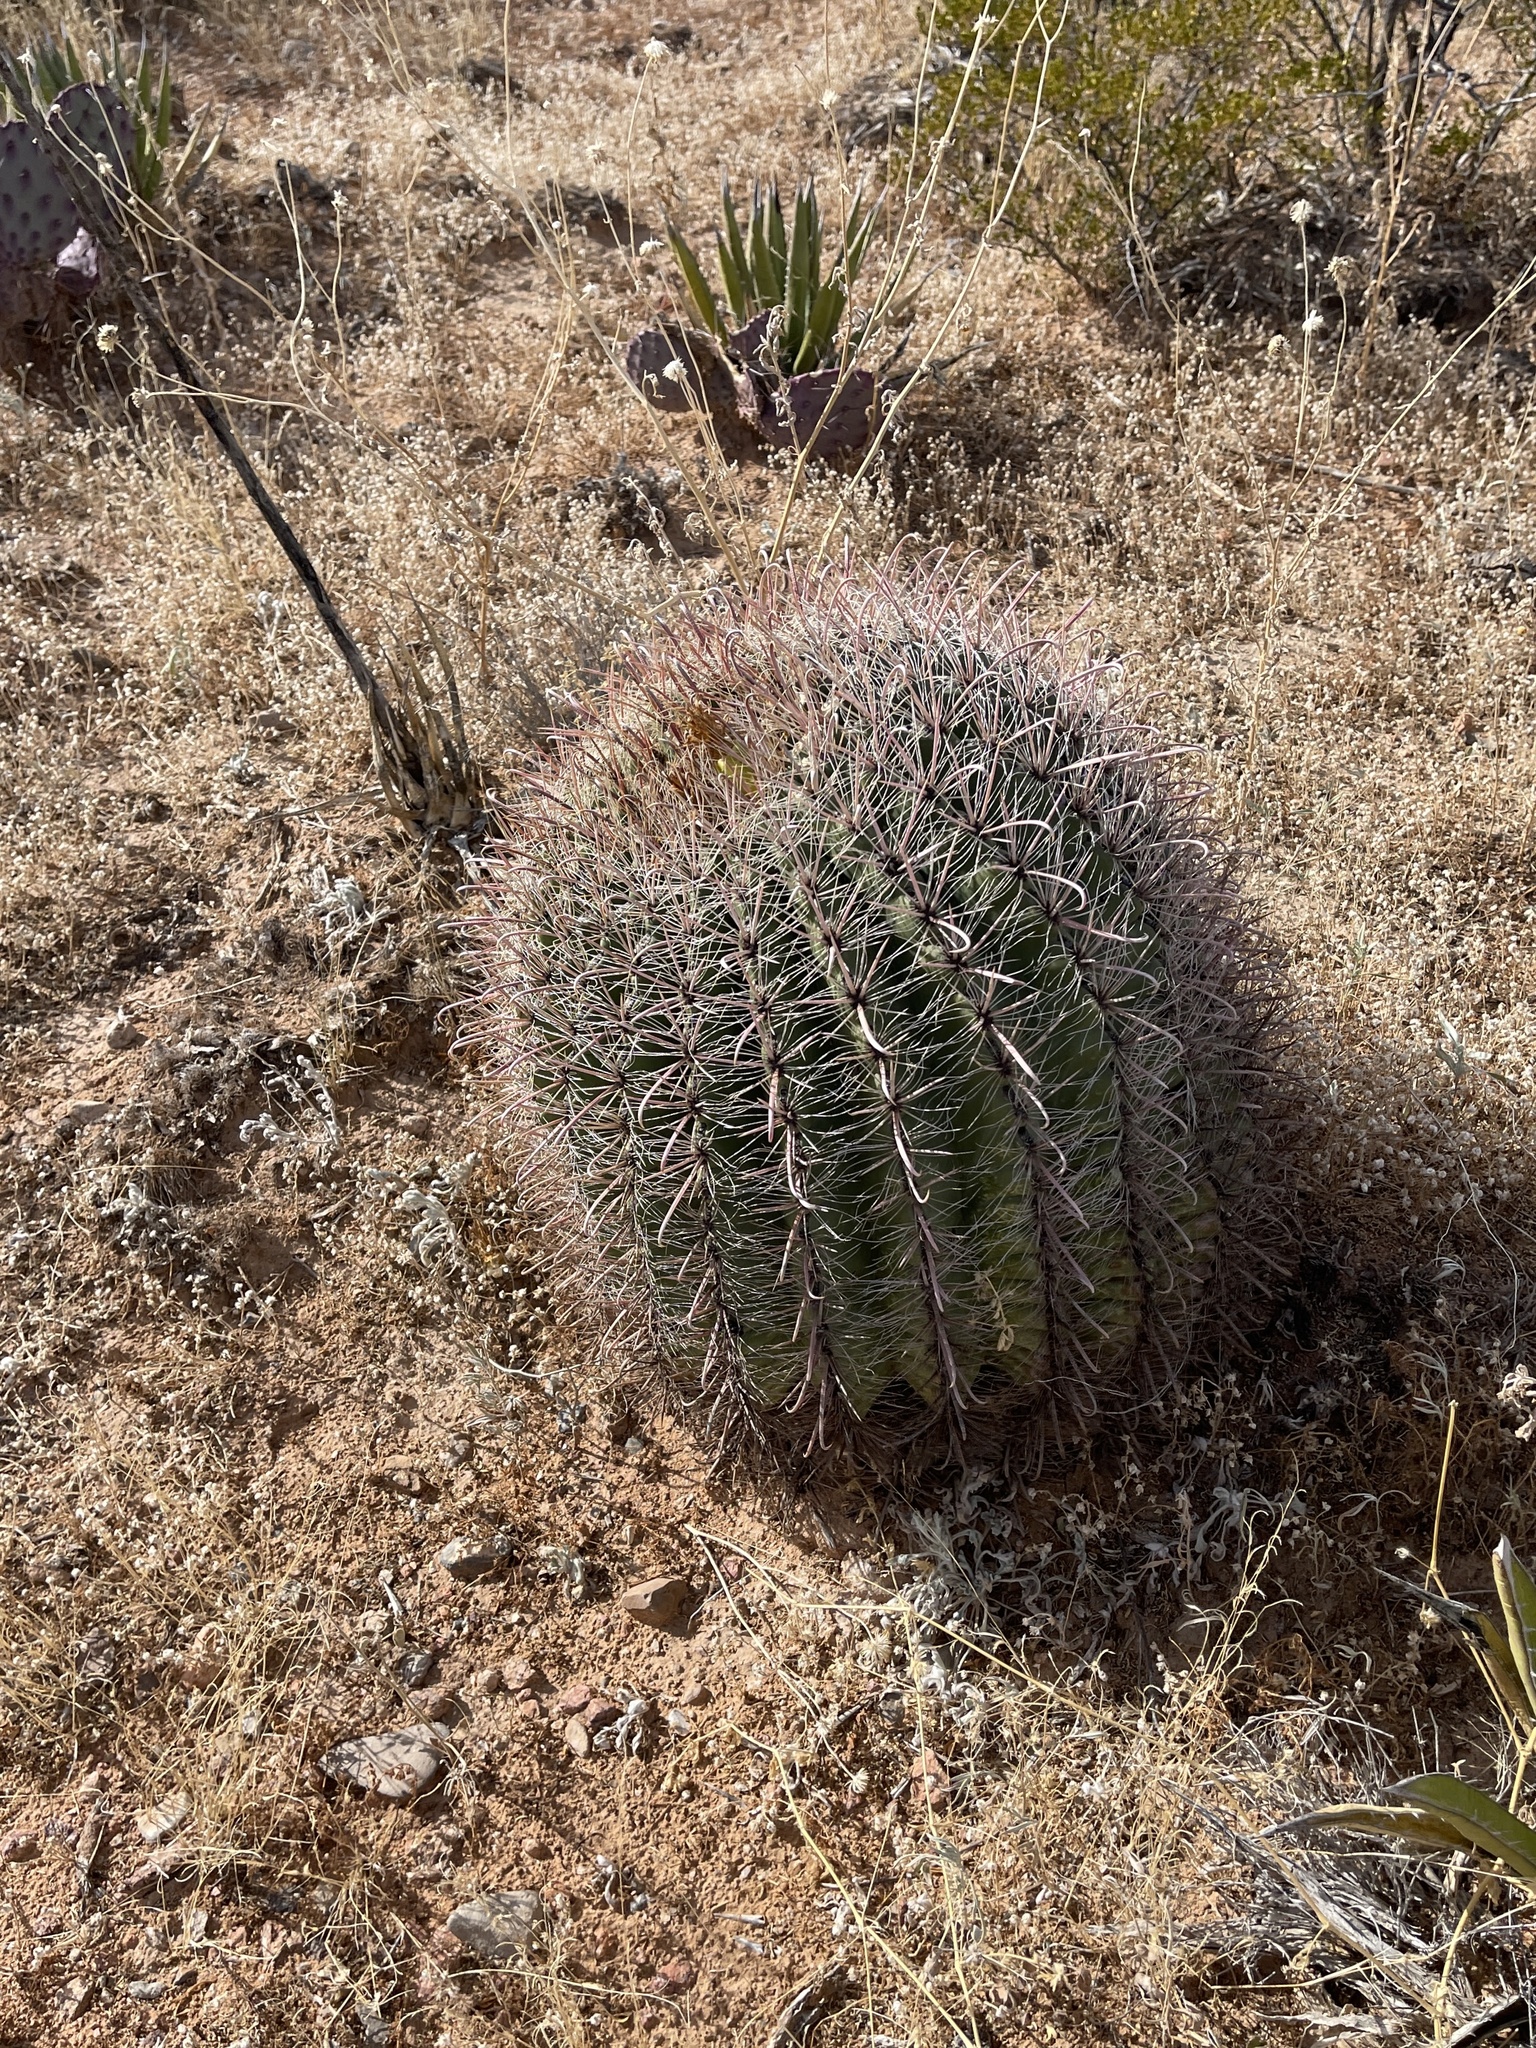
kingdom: Plantae
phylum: Tracheophyta
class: Magnoliopsida
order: Caryophyllales
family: Cactaceae
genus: Ferocactus
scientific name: Ferocactus wislizeni
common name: Candy barrel cactus
